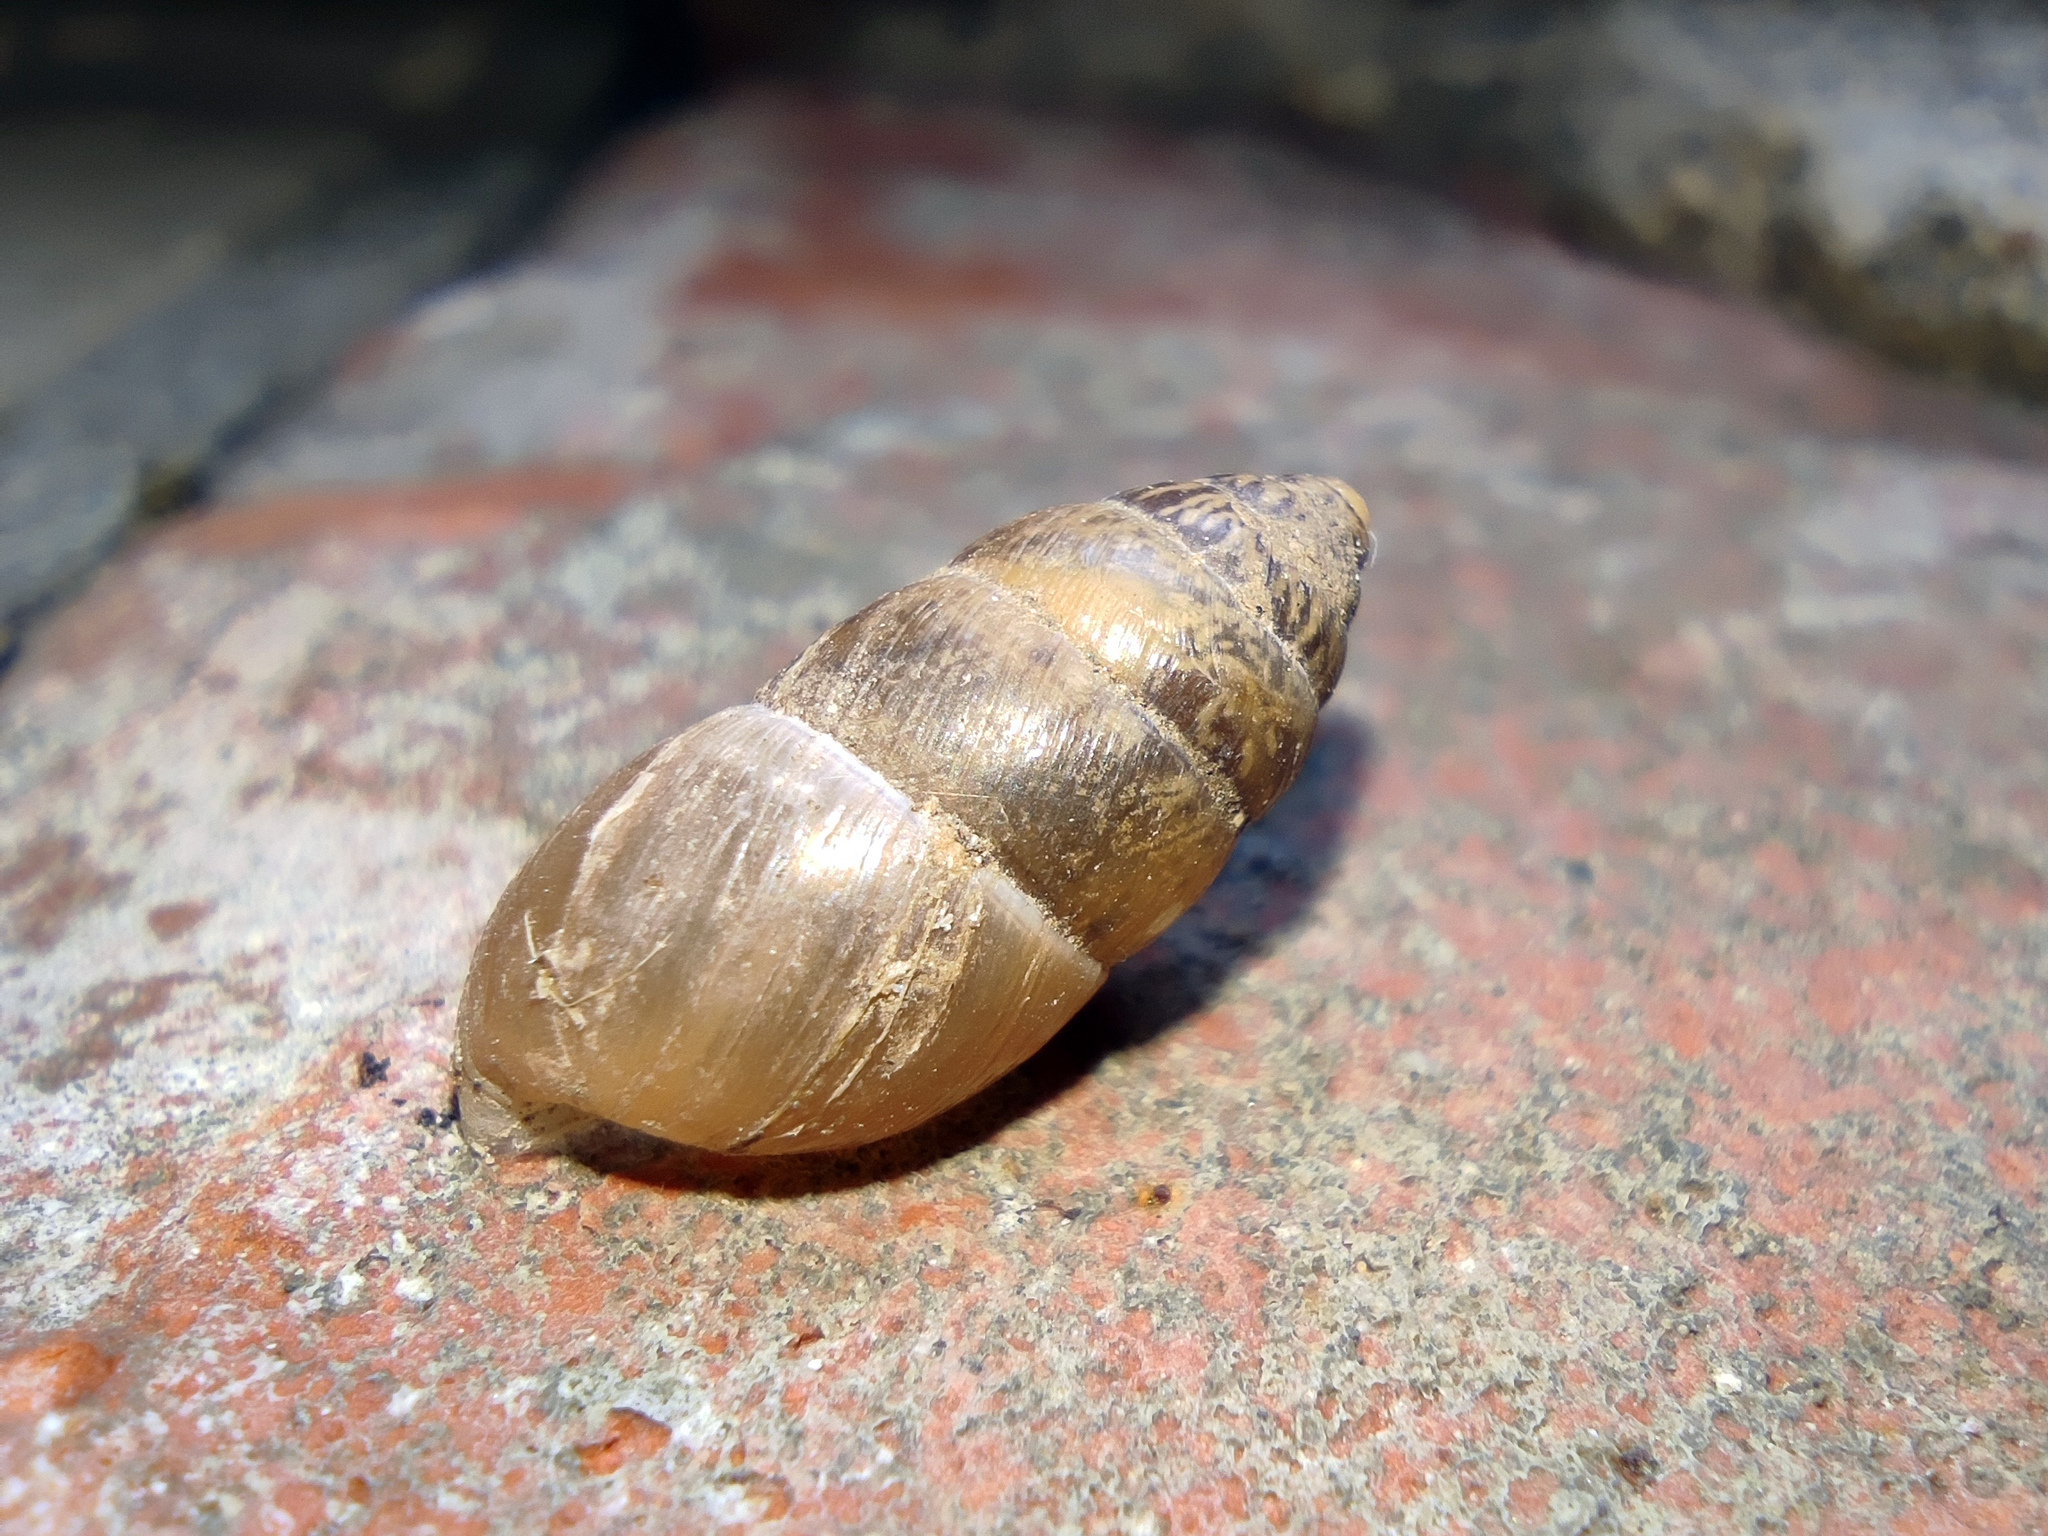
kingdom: Animalia
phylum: Mollusca
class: Gastropoda
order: Stylommatophora
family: Enidae
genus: Chondrula
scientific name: Chondrula tridens
